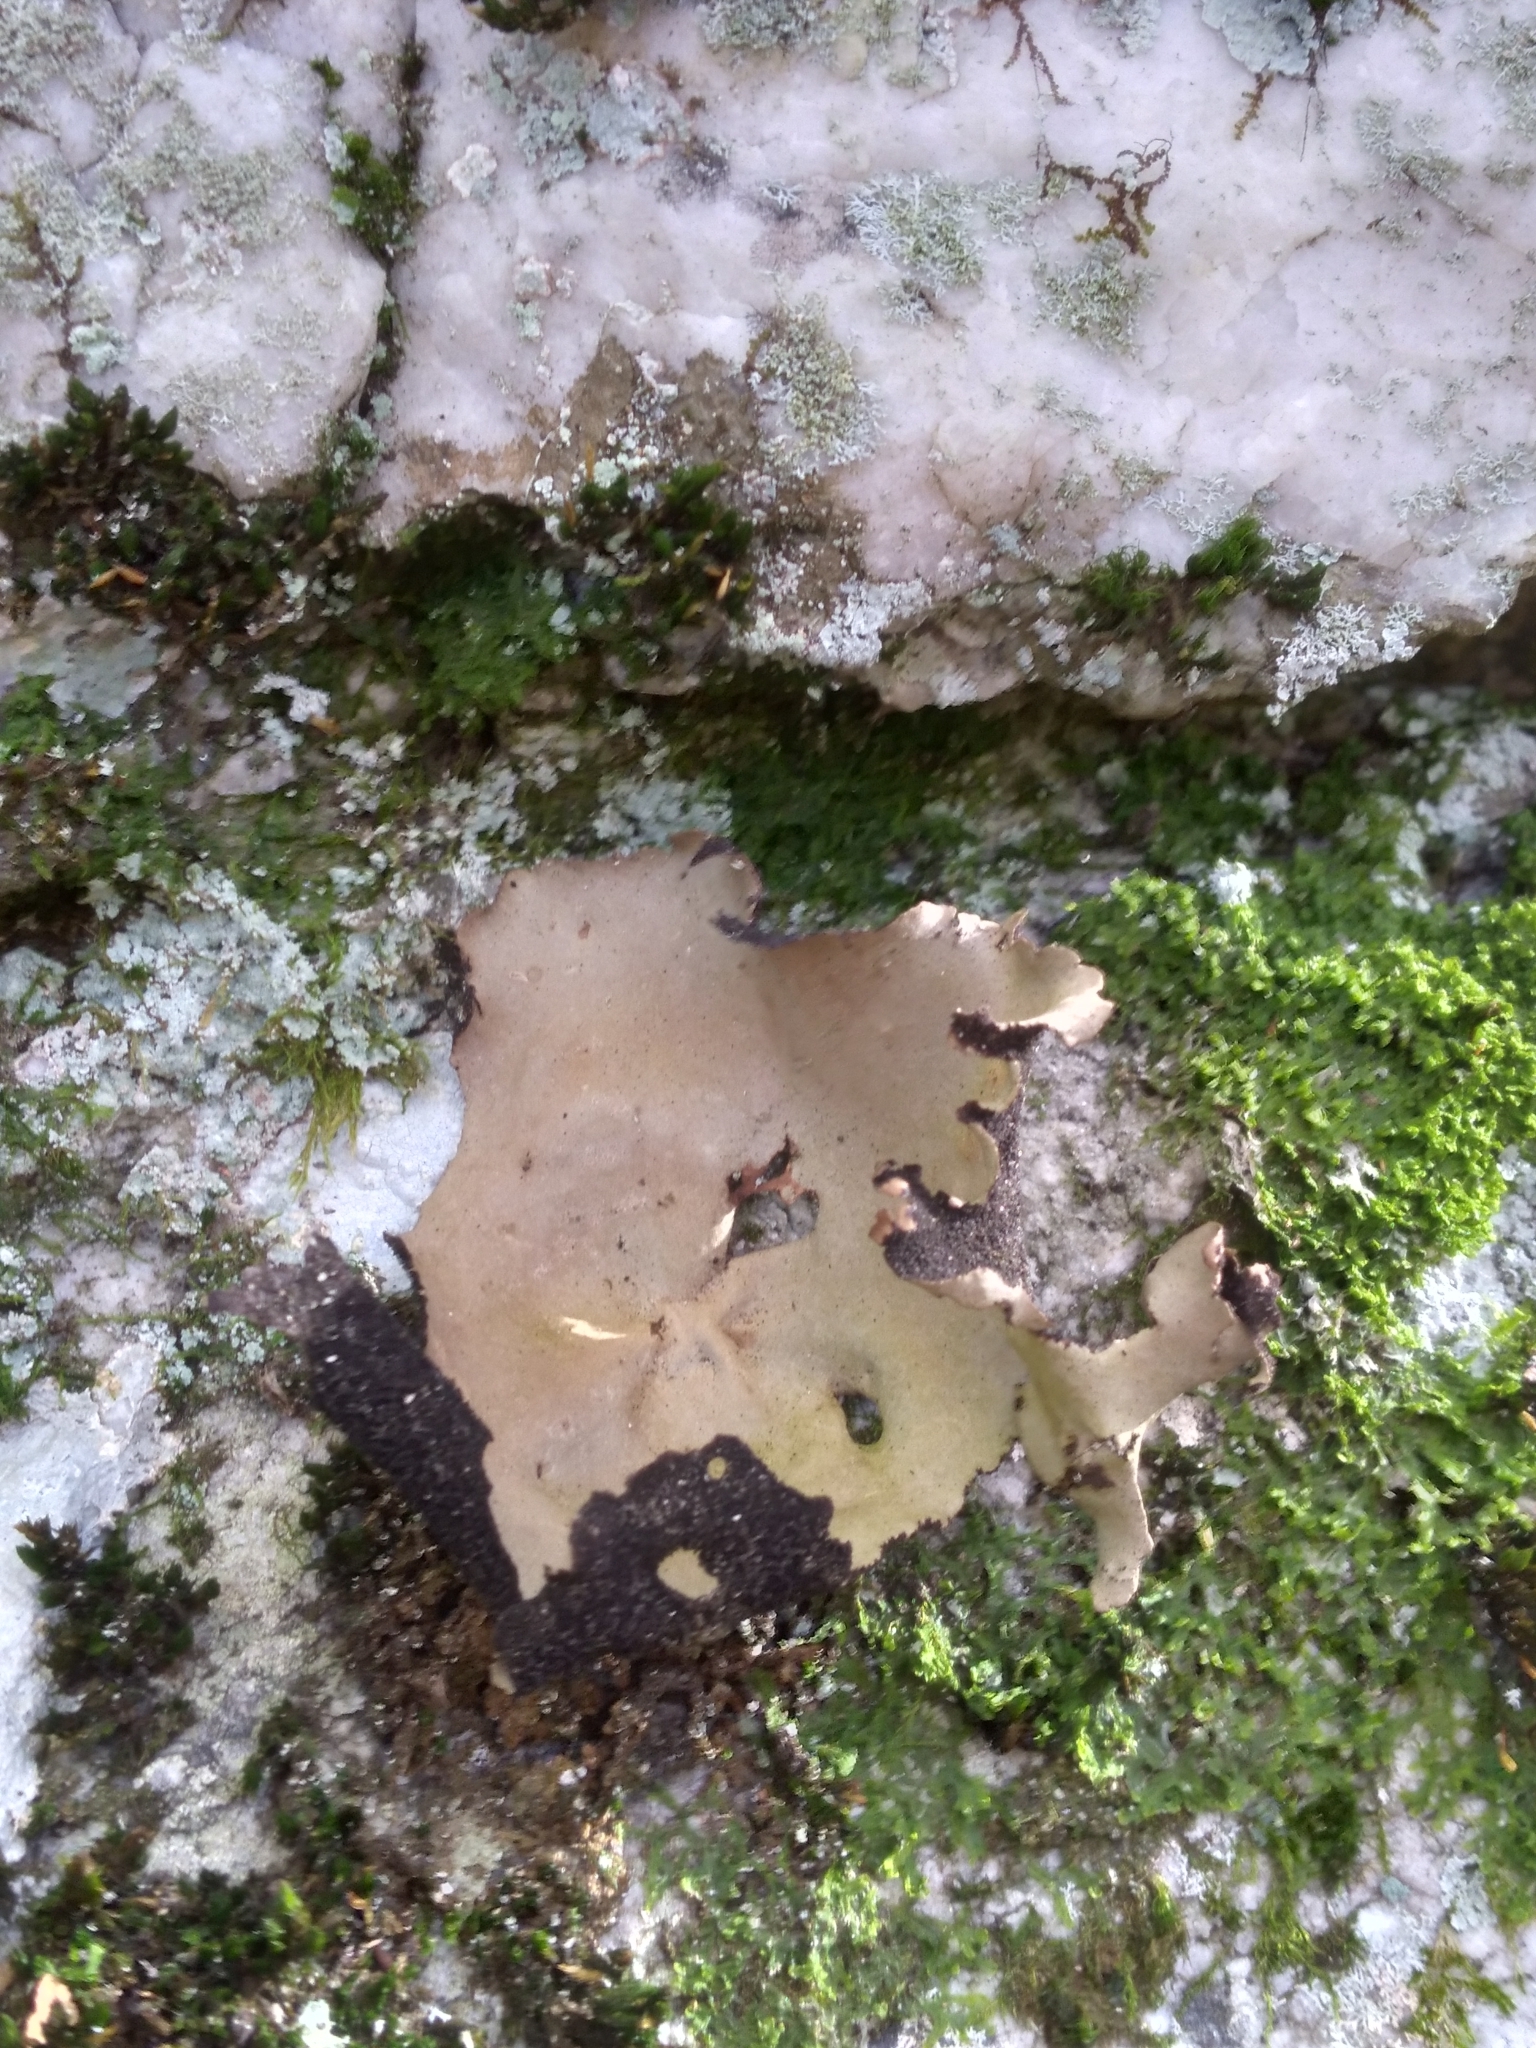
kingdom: Fungi
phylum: Ascomycota
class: Lecanoromycetes
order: Umbilicariales
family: Umbilicariaceae
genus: Umbilicaria
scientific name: Umbilicaria mammulata
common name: Smooth rock tripe
